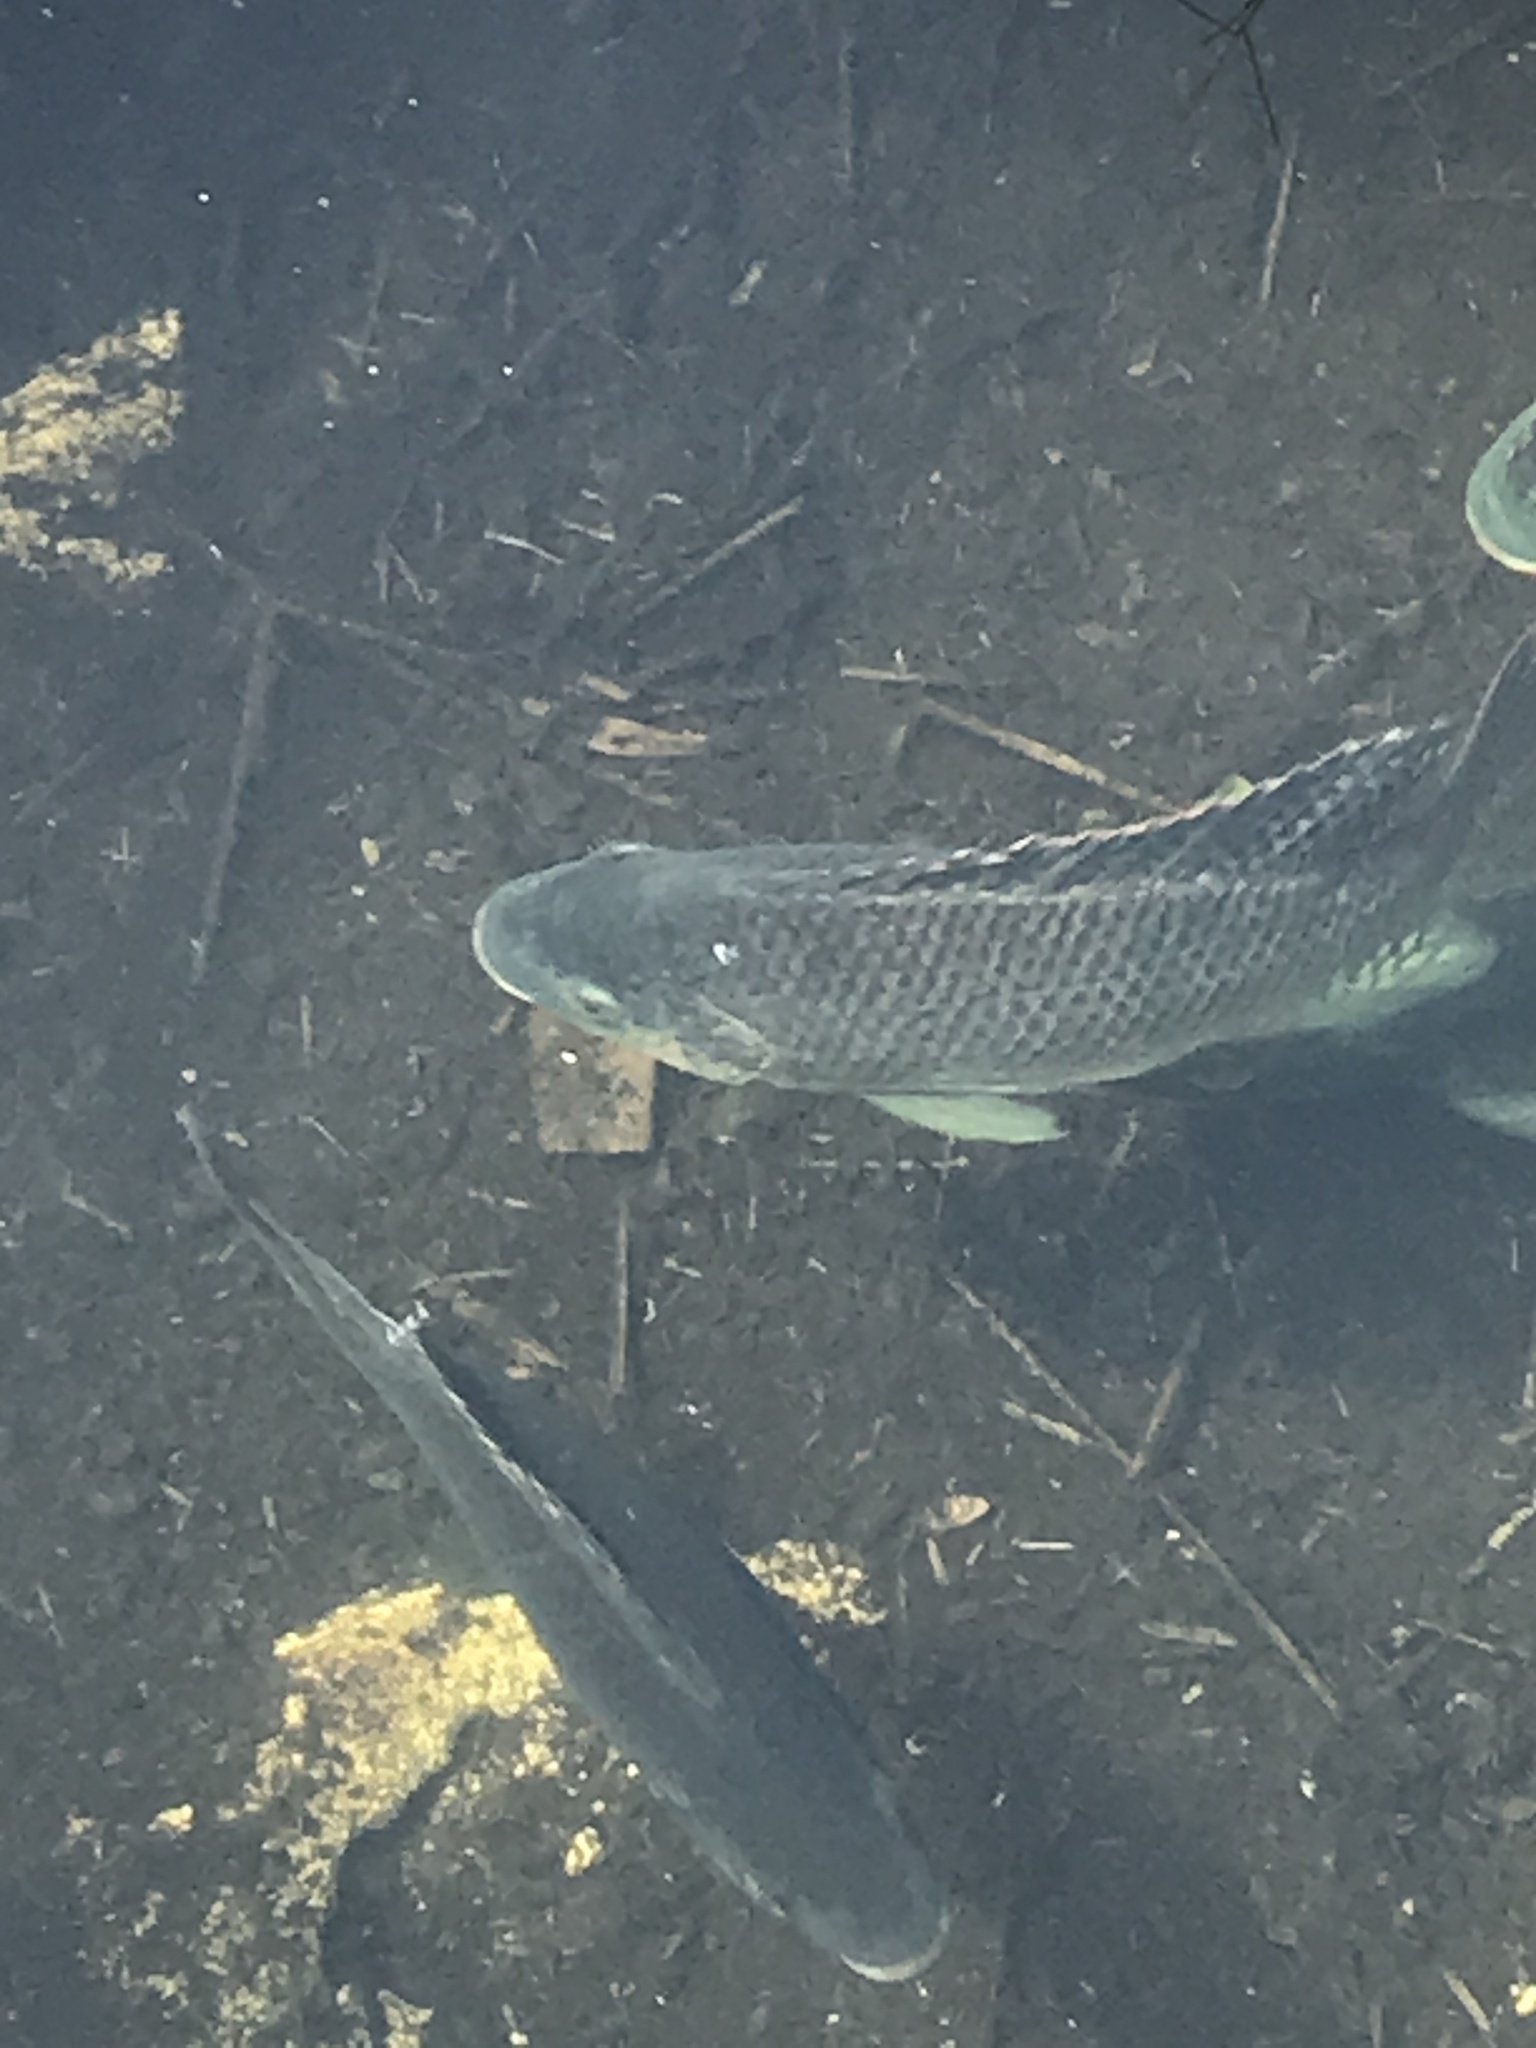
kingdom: Animalia
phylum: Chordata
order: Perciformes
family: Cichlidae
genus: Oreochromis
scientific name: Oreochromis aureus
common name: Blue tilapia
